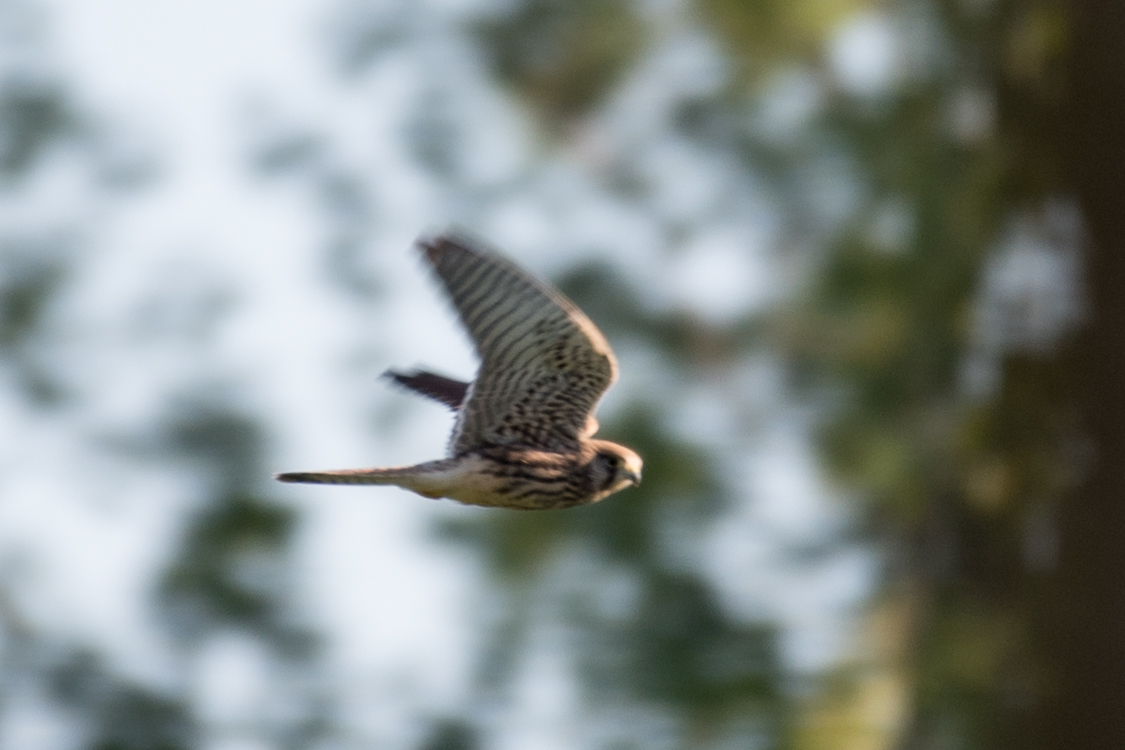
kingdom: Animalia
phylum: Chordata
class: Aves
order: Falconiformes
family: Falconidae
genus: Falco
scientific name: Falco tinnunculus
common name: Common kestrel
